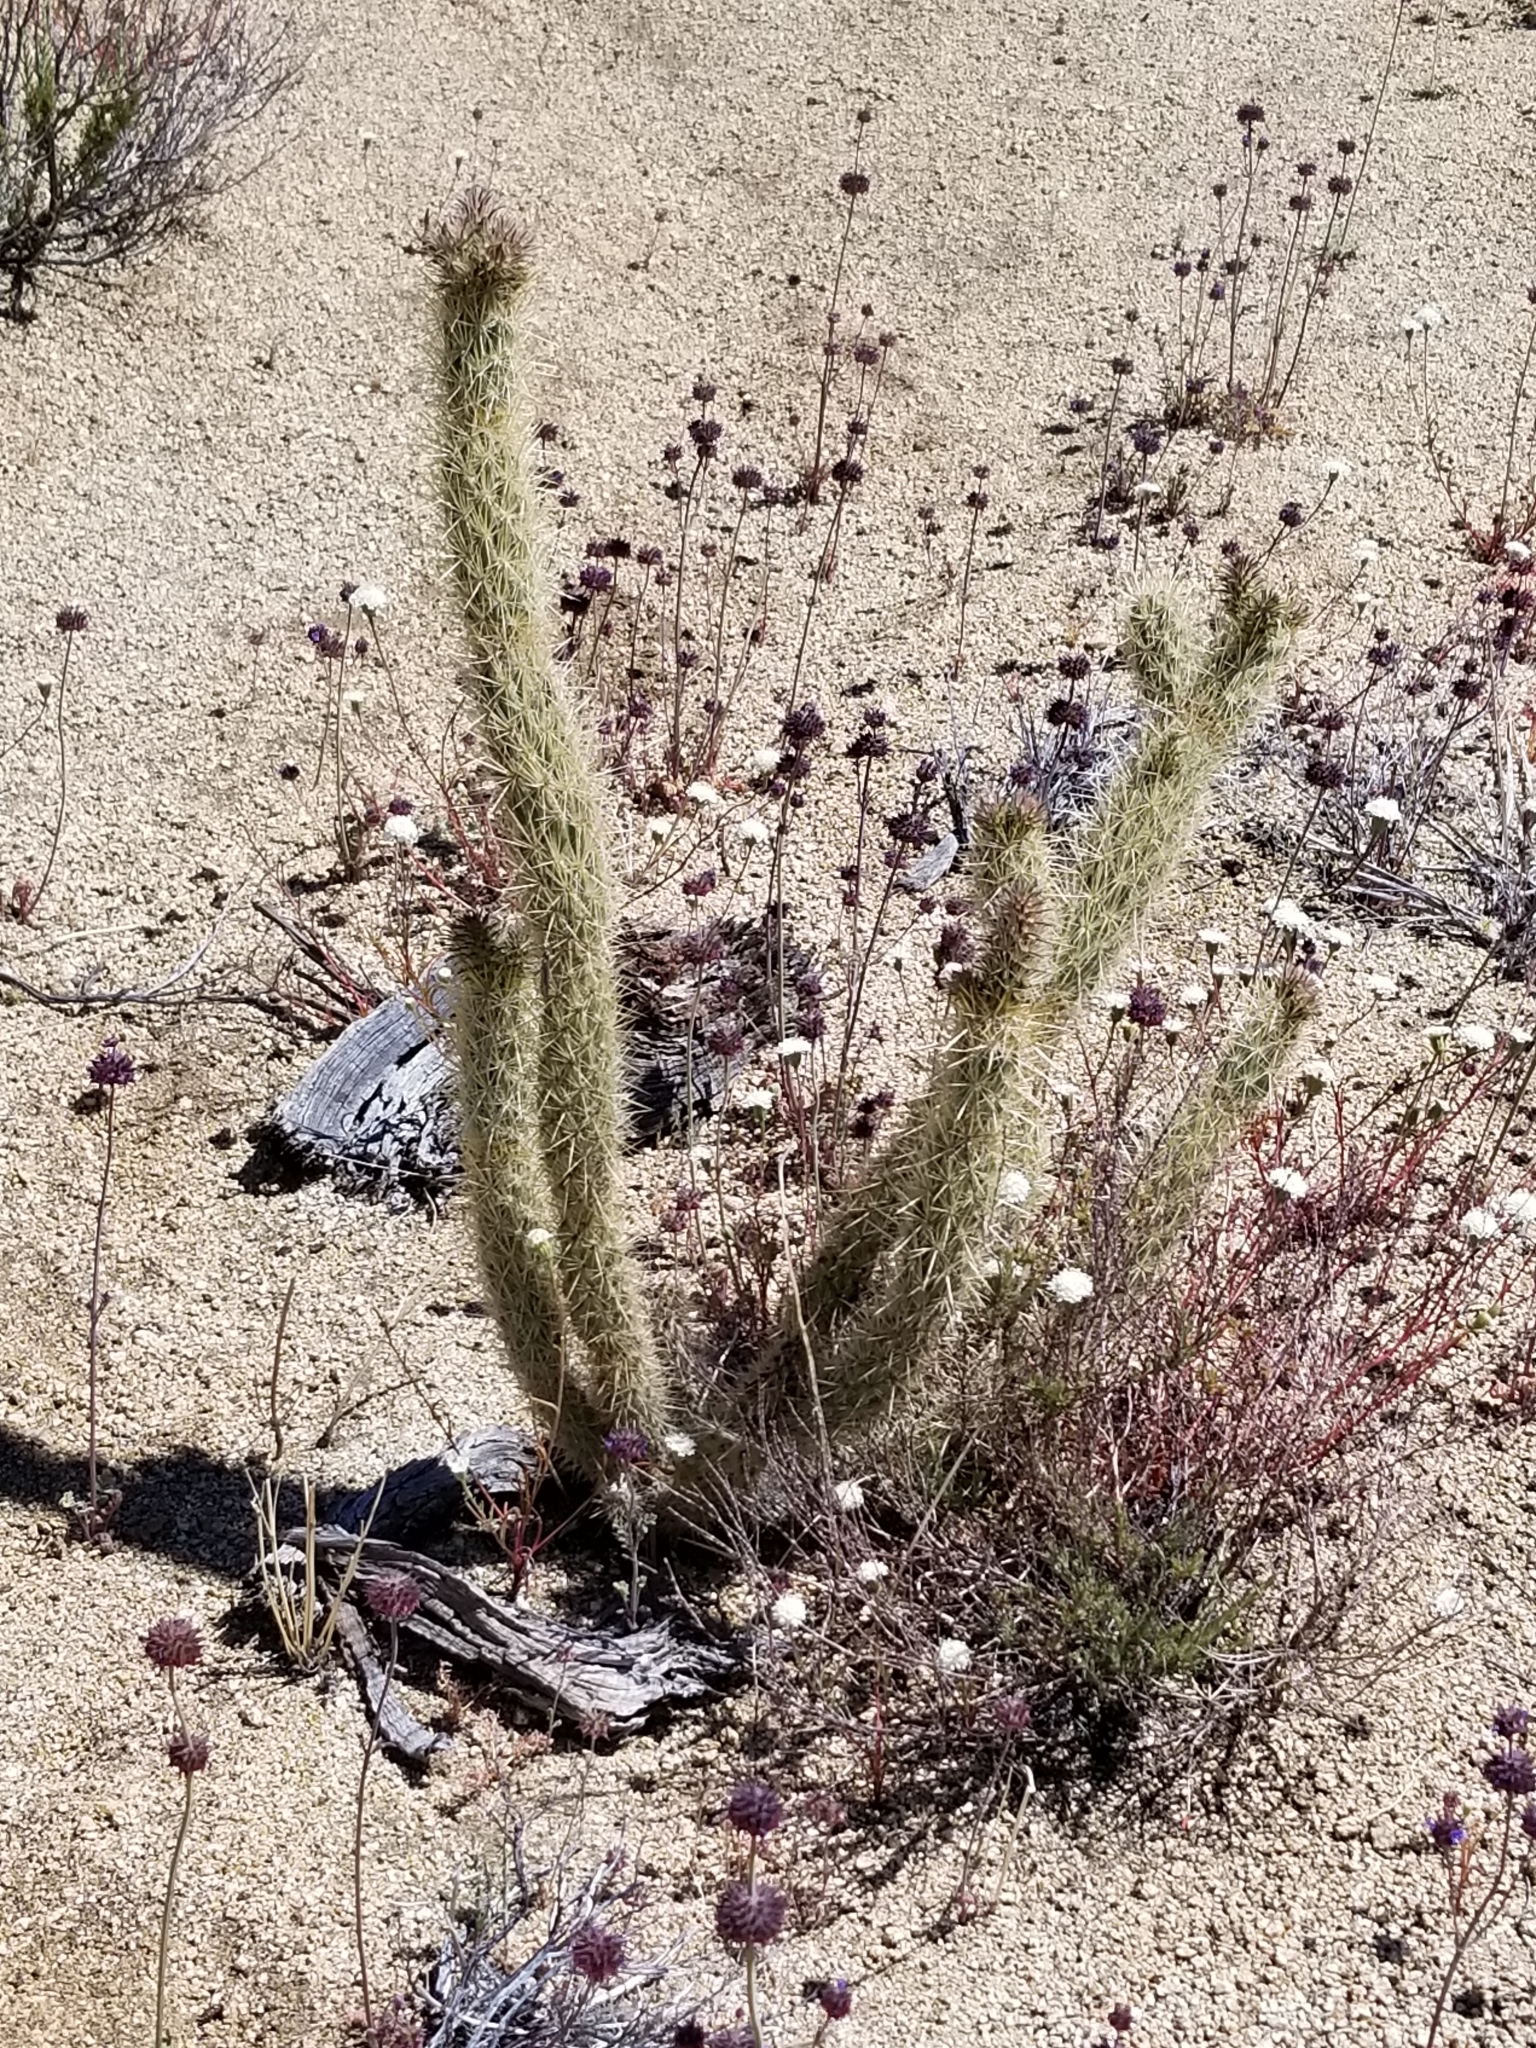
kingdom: Plantae
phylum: Tracheophyta
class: Magnoliopsida
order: Caryophyllales
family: Cactaceae
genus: Cylindropuntia
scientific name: Cylindropuntia ganderi
